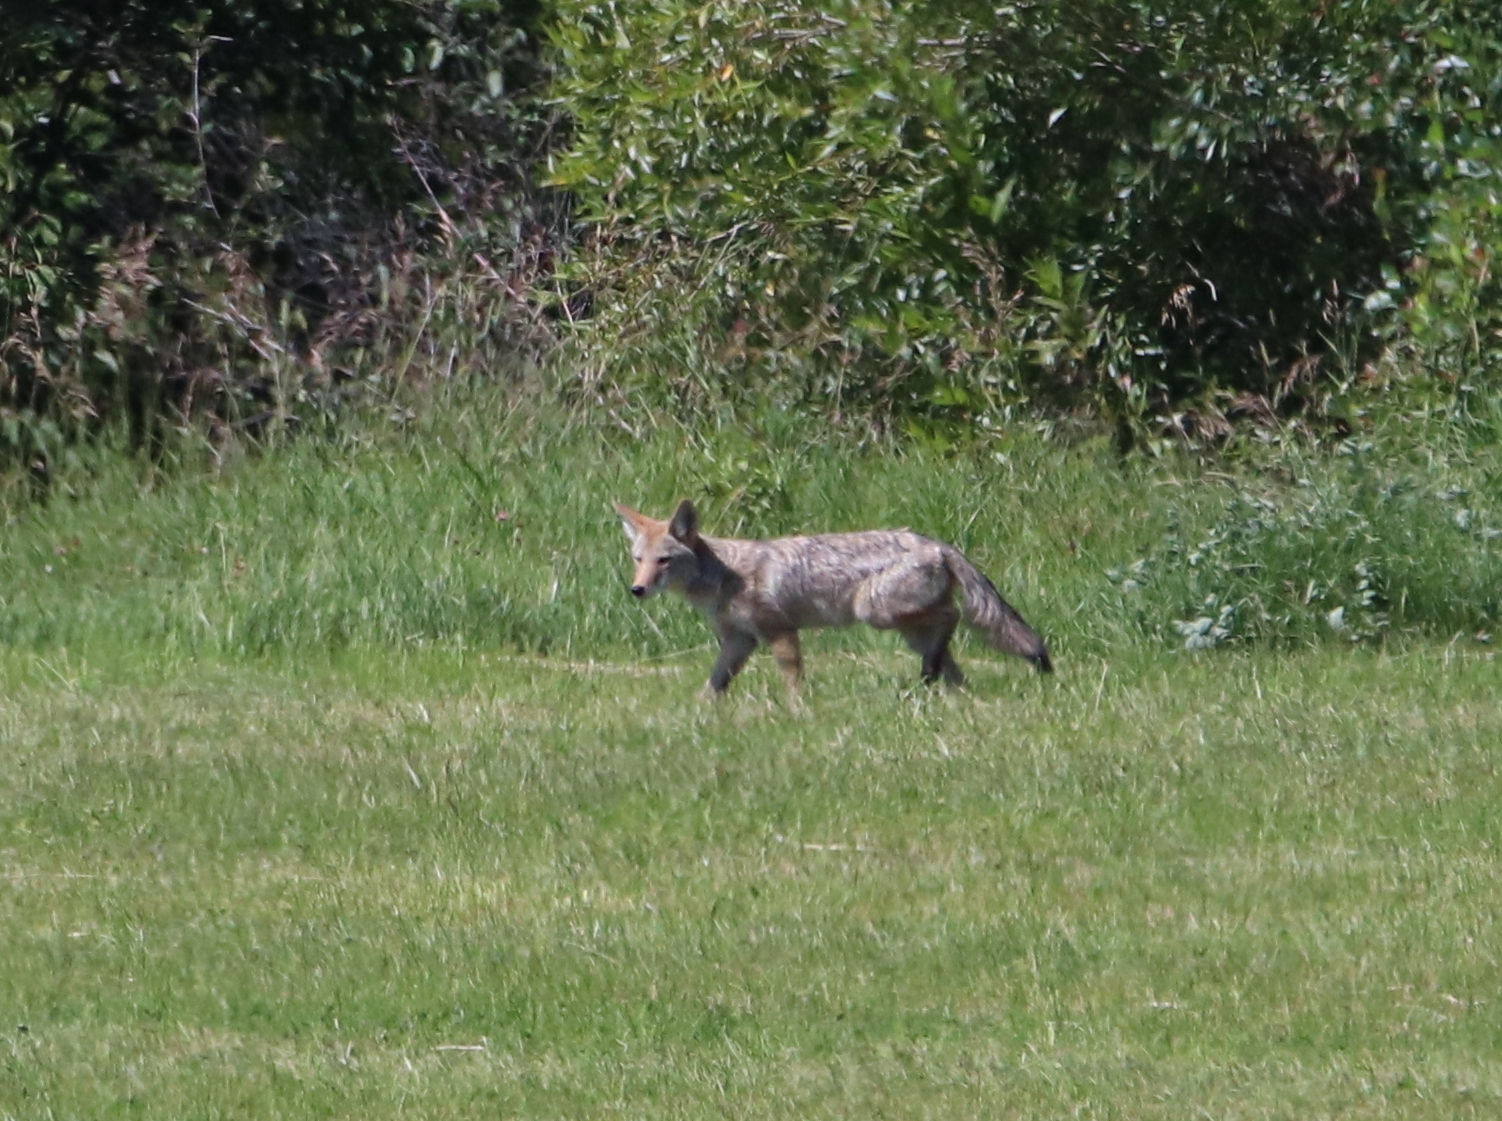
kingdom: Animalia
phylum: Chordata
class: Mammalia
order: Carnivora
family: Canidae
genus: Canis
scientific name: Canis latrans
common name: Coyote
